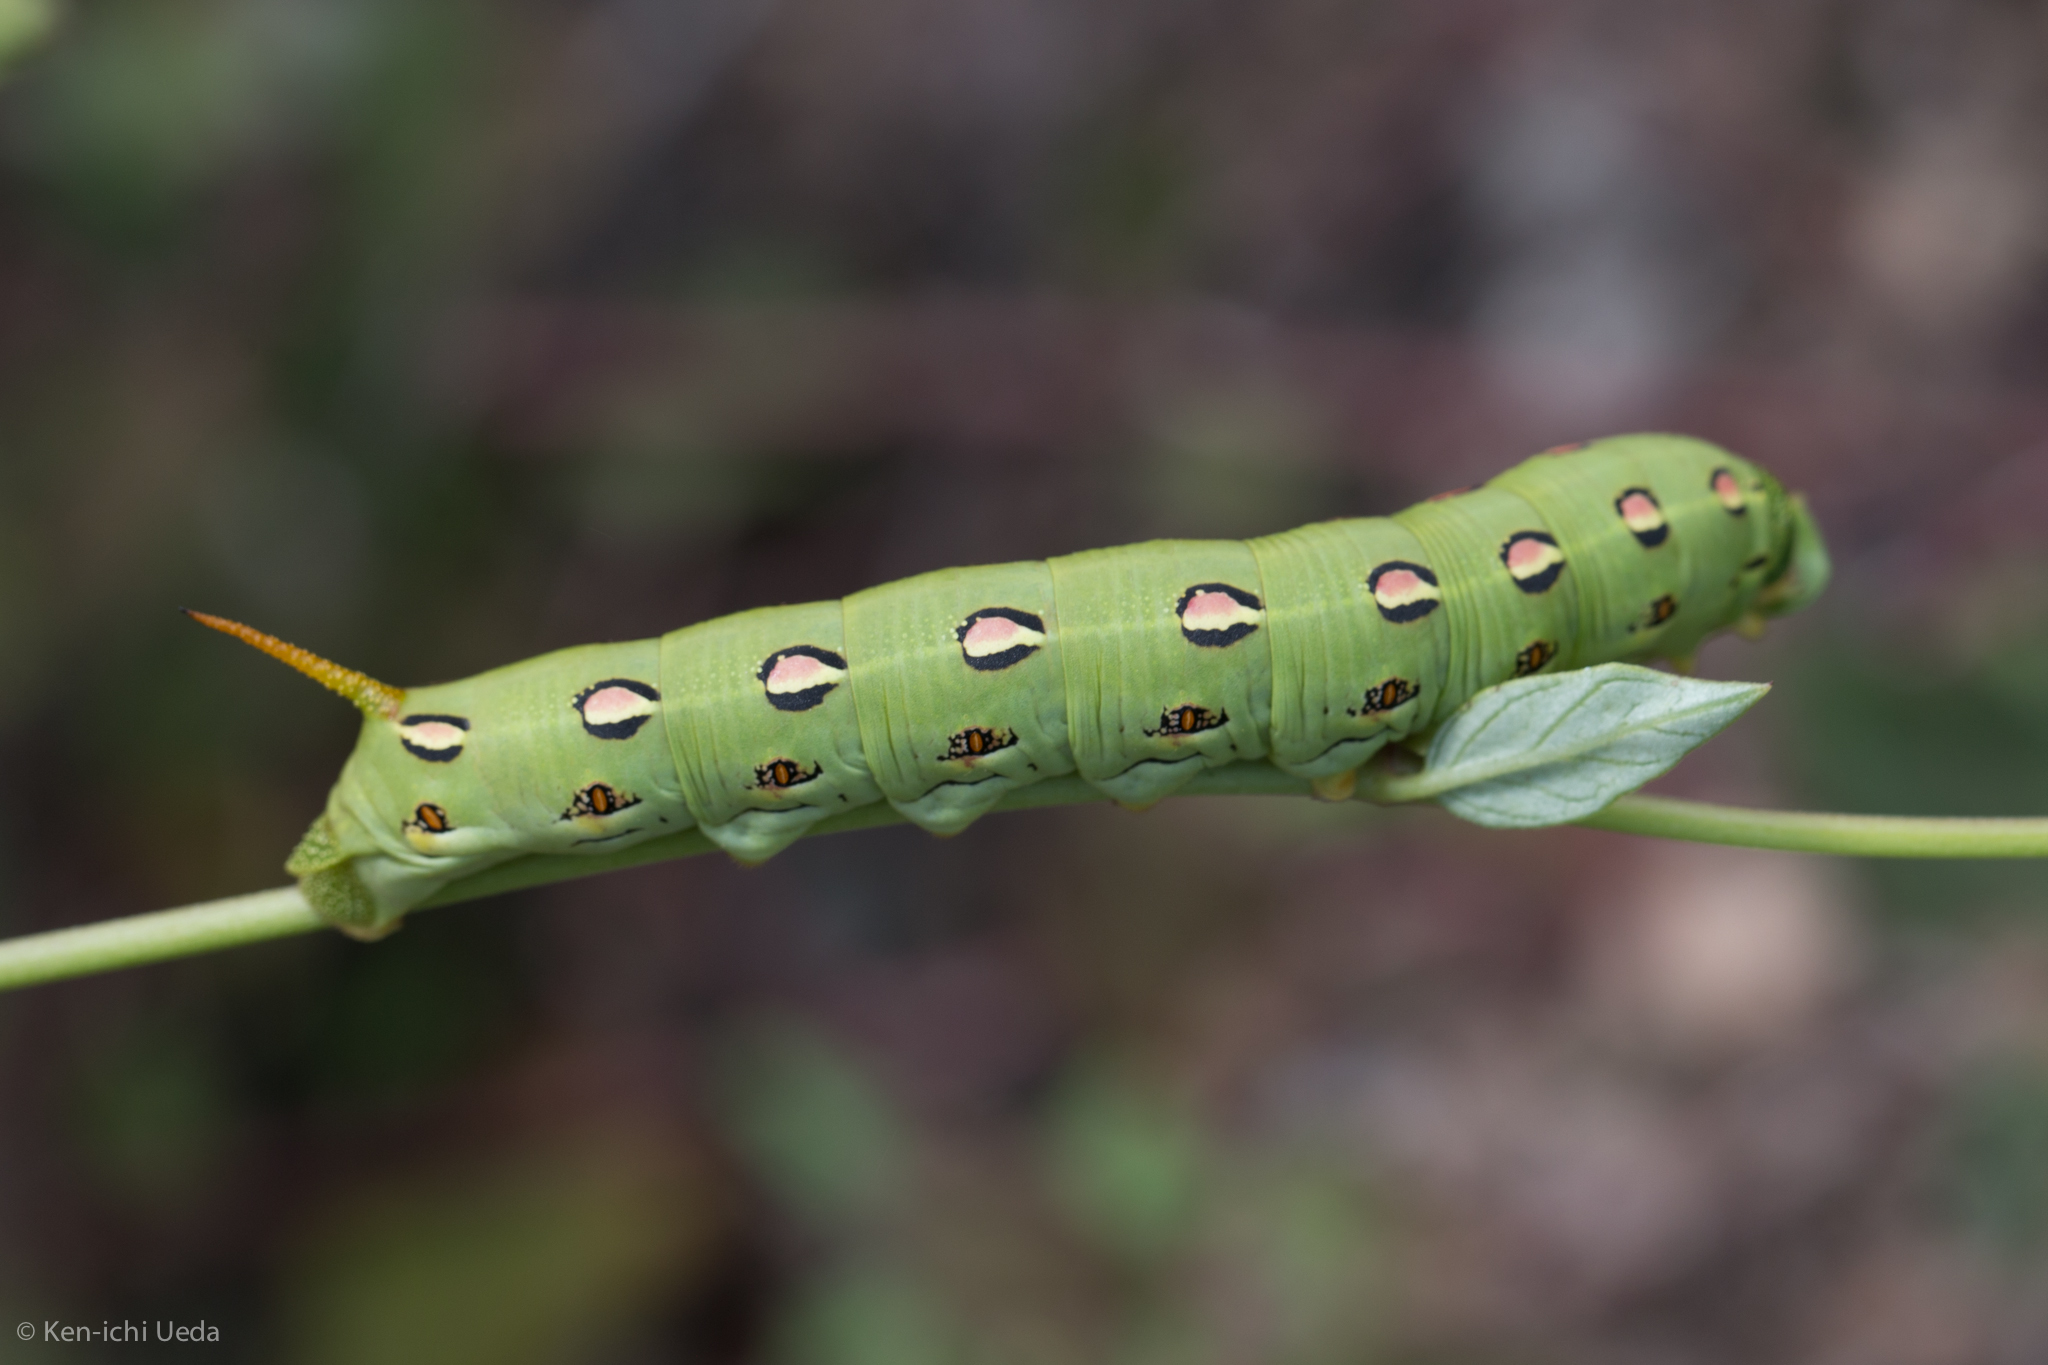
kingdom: Animalia
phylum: Arthropoda
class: Insecta
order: Lepidoptera
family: Sphingidae
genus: Hyles
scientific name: Hyles lineata
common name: White-lined sphinx
